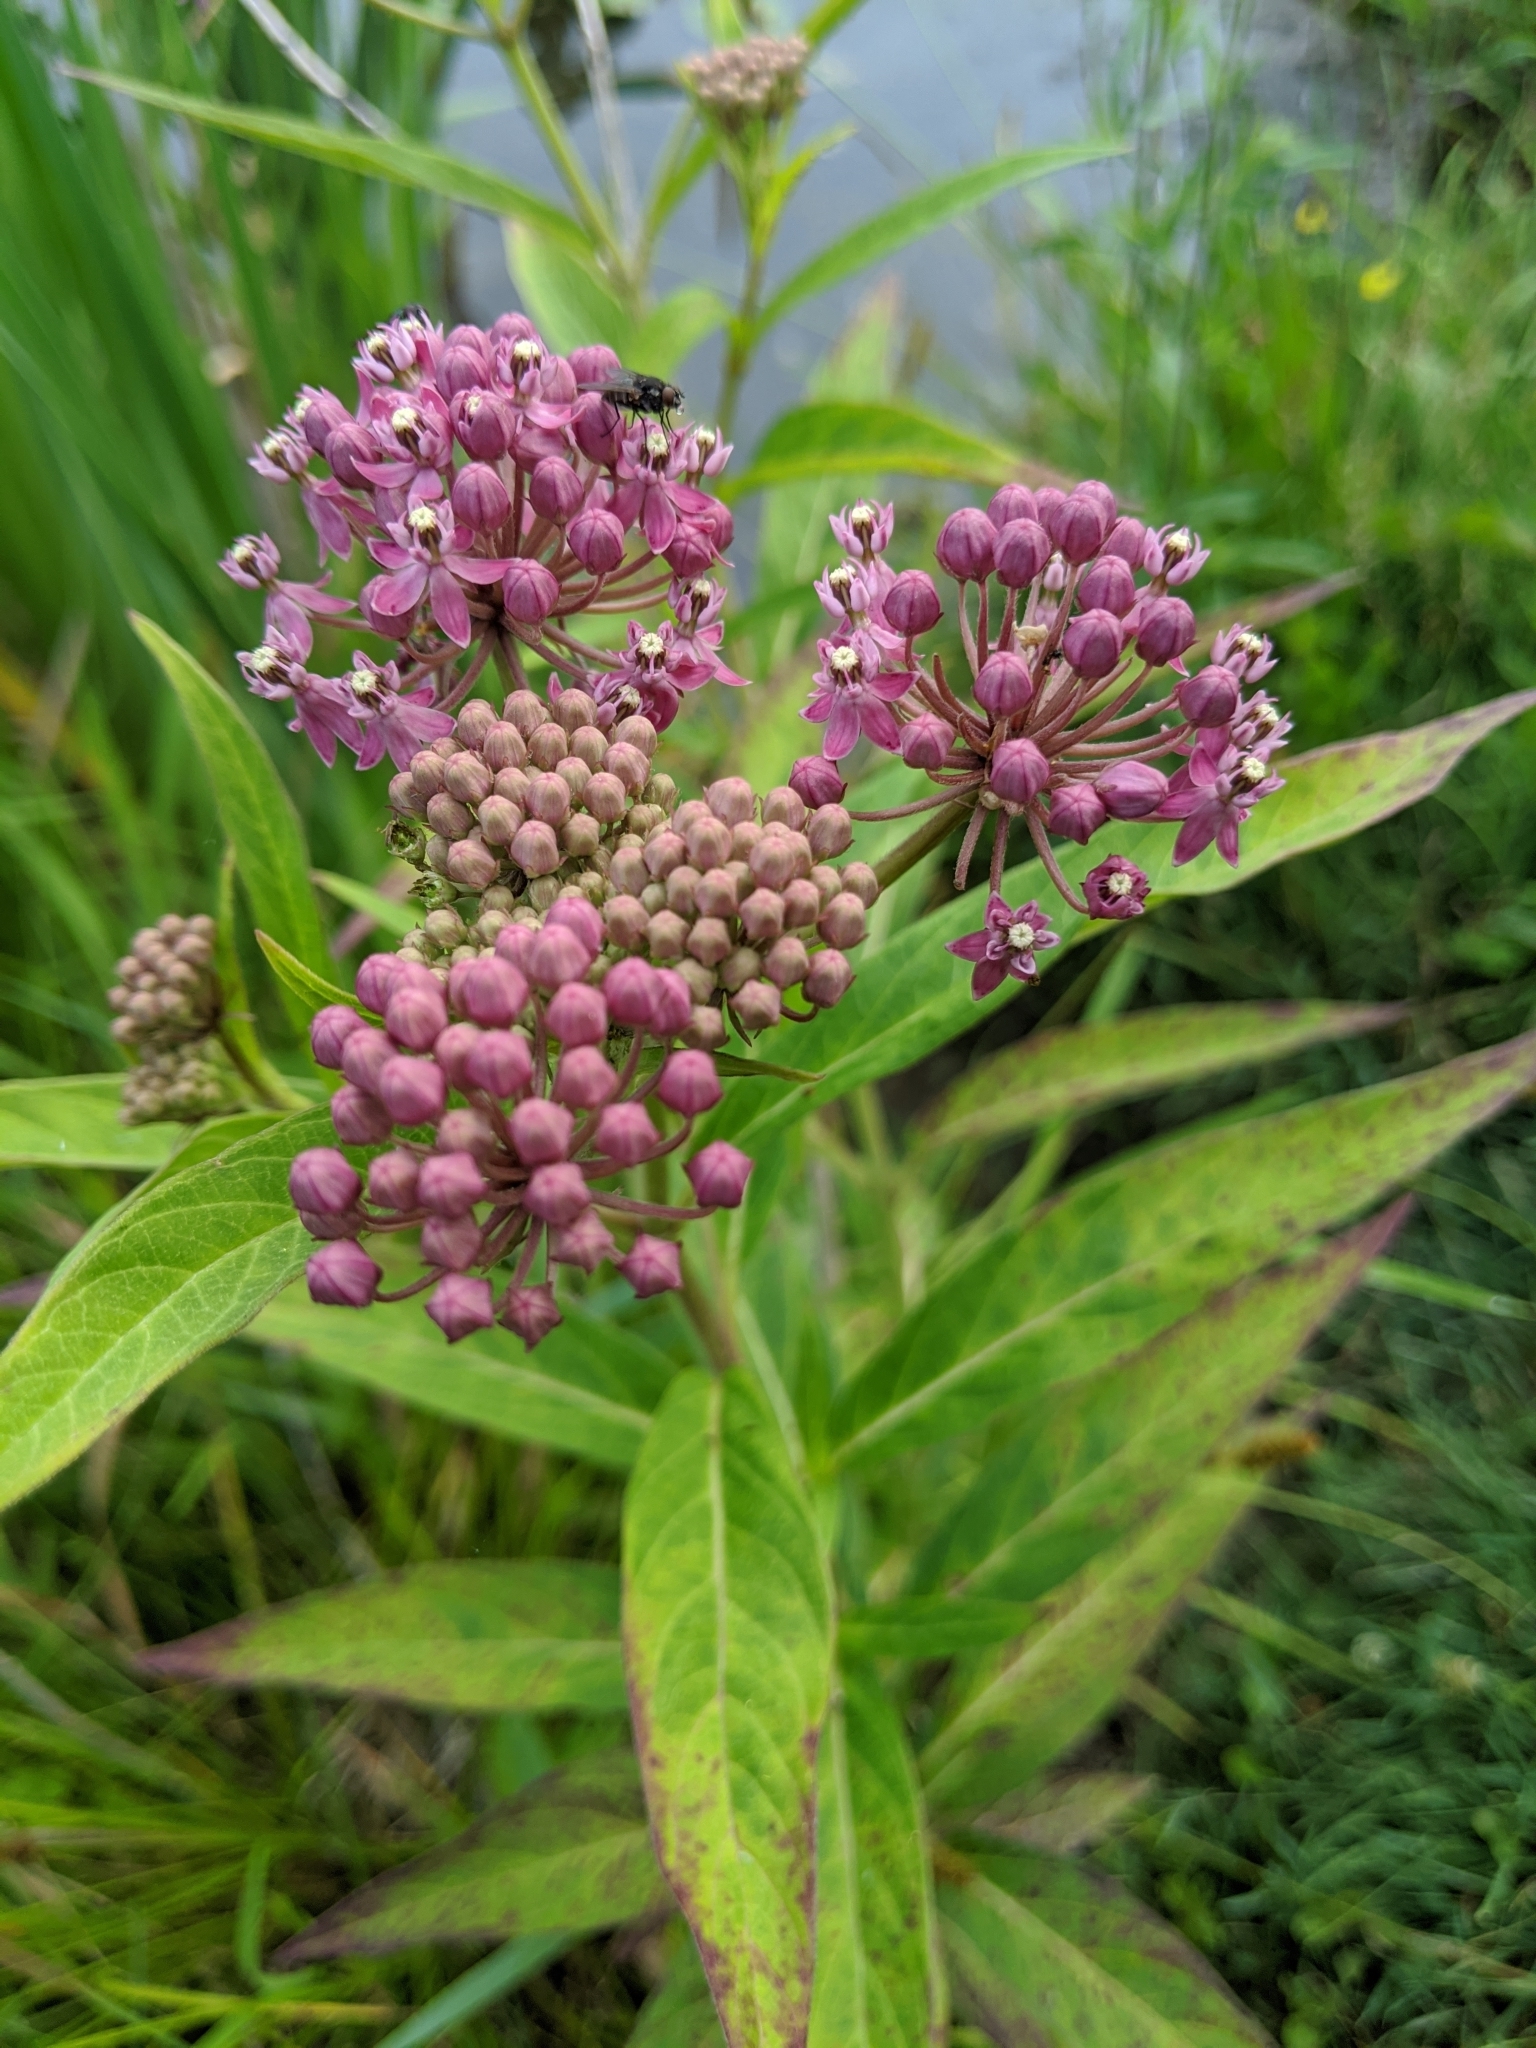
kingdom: Plantae
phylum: Tracheophyta
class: Magnoliopsida
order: Gentianales
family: Apocynaceae
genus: Asclepias
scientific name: Asclepias incarnata
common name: Swamp milkweed
